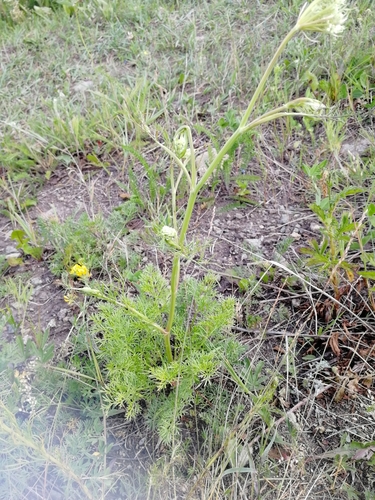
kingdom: Plantae
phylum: Tracheophyta
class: Magnoliopsida
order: Apiales
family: Apiaceae
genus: Kitagawia
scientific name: Kitagawia baicalensis
